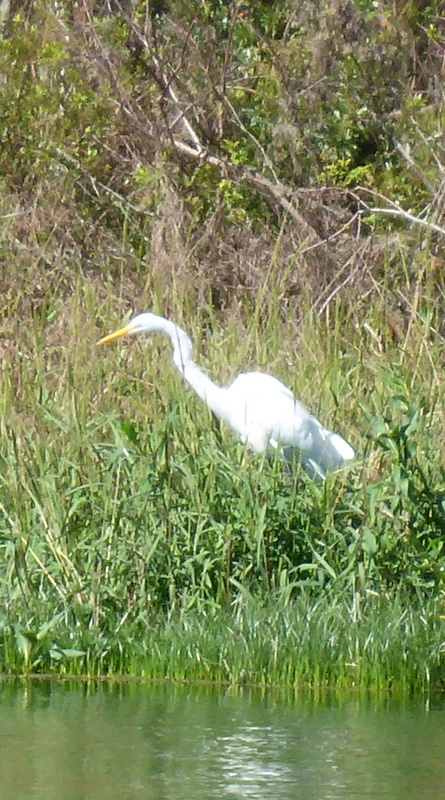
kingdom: Animalia
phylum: Chordata
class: Aves
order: Pelecaniformes
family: Ardeidae
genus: Ardea
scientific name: Ardea alba
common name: Great egret
